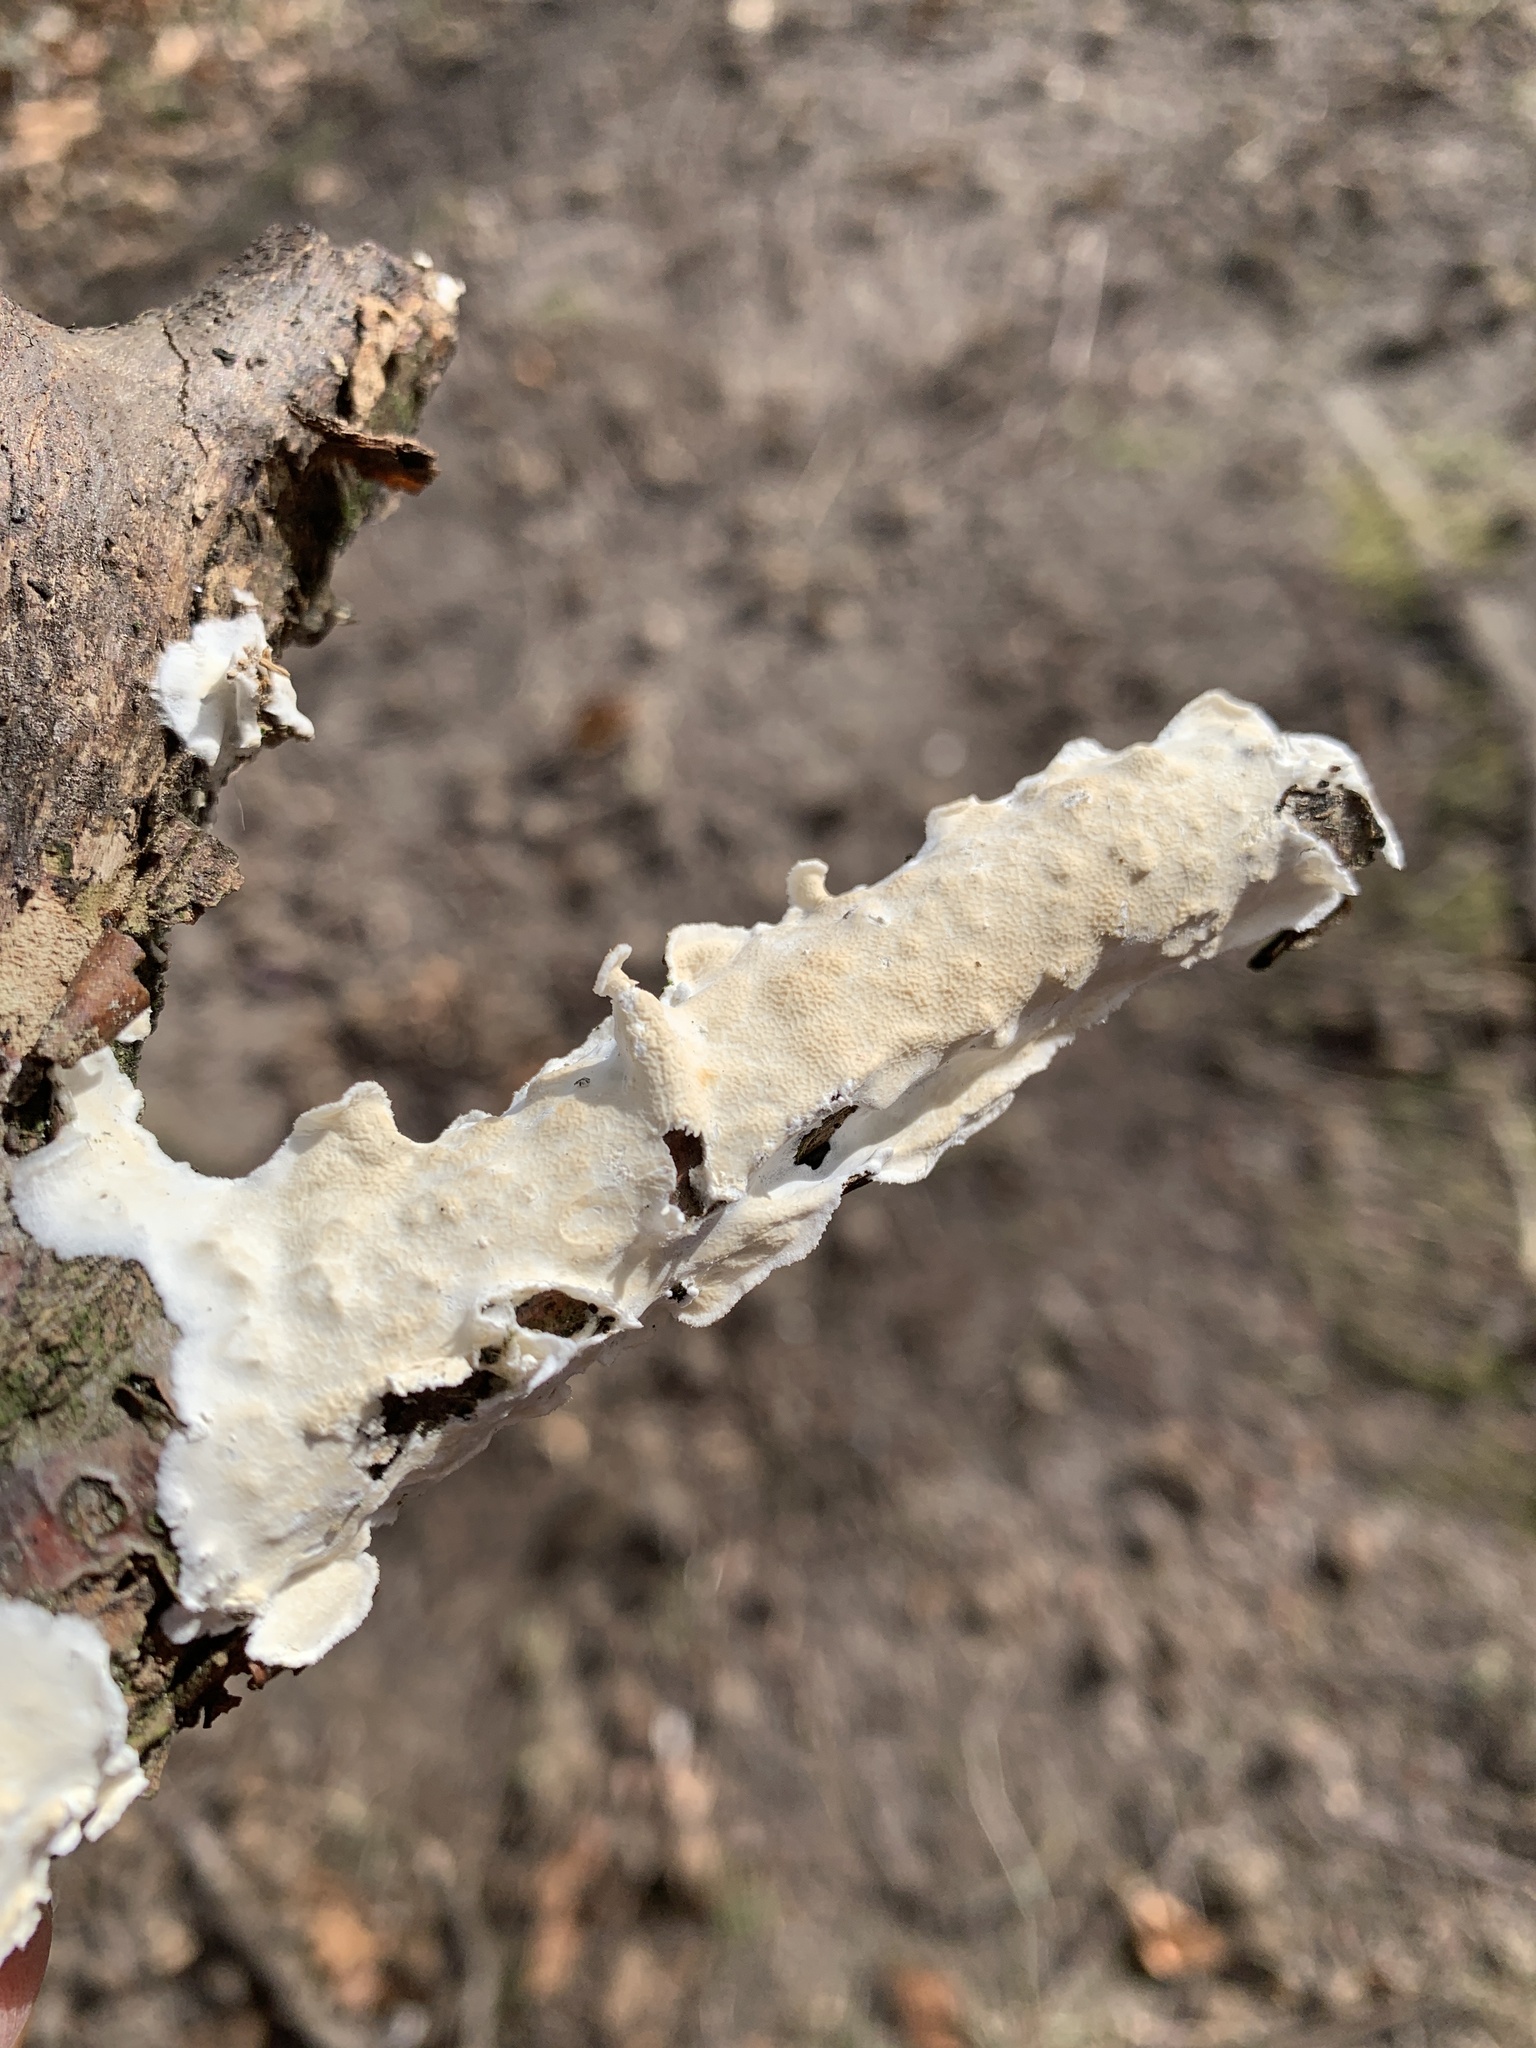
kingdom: Fungi
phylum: Basidiomycota
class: Agaricomycetes
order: Polyporales
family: Irpicaceae
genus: Byssomerulius
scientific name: Byssomerulius corium
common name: Netted crust
